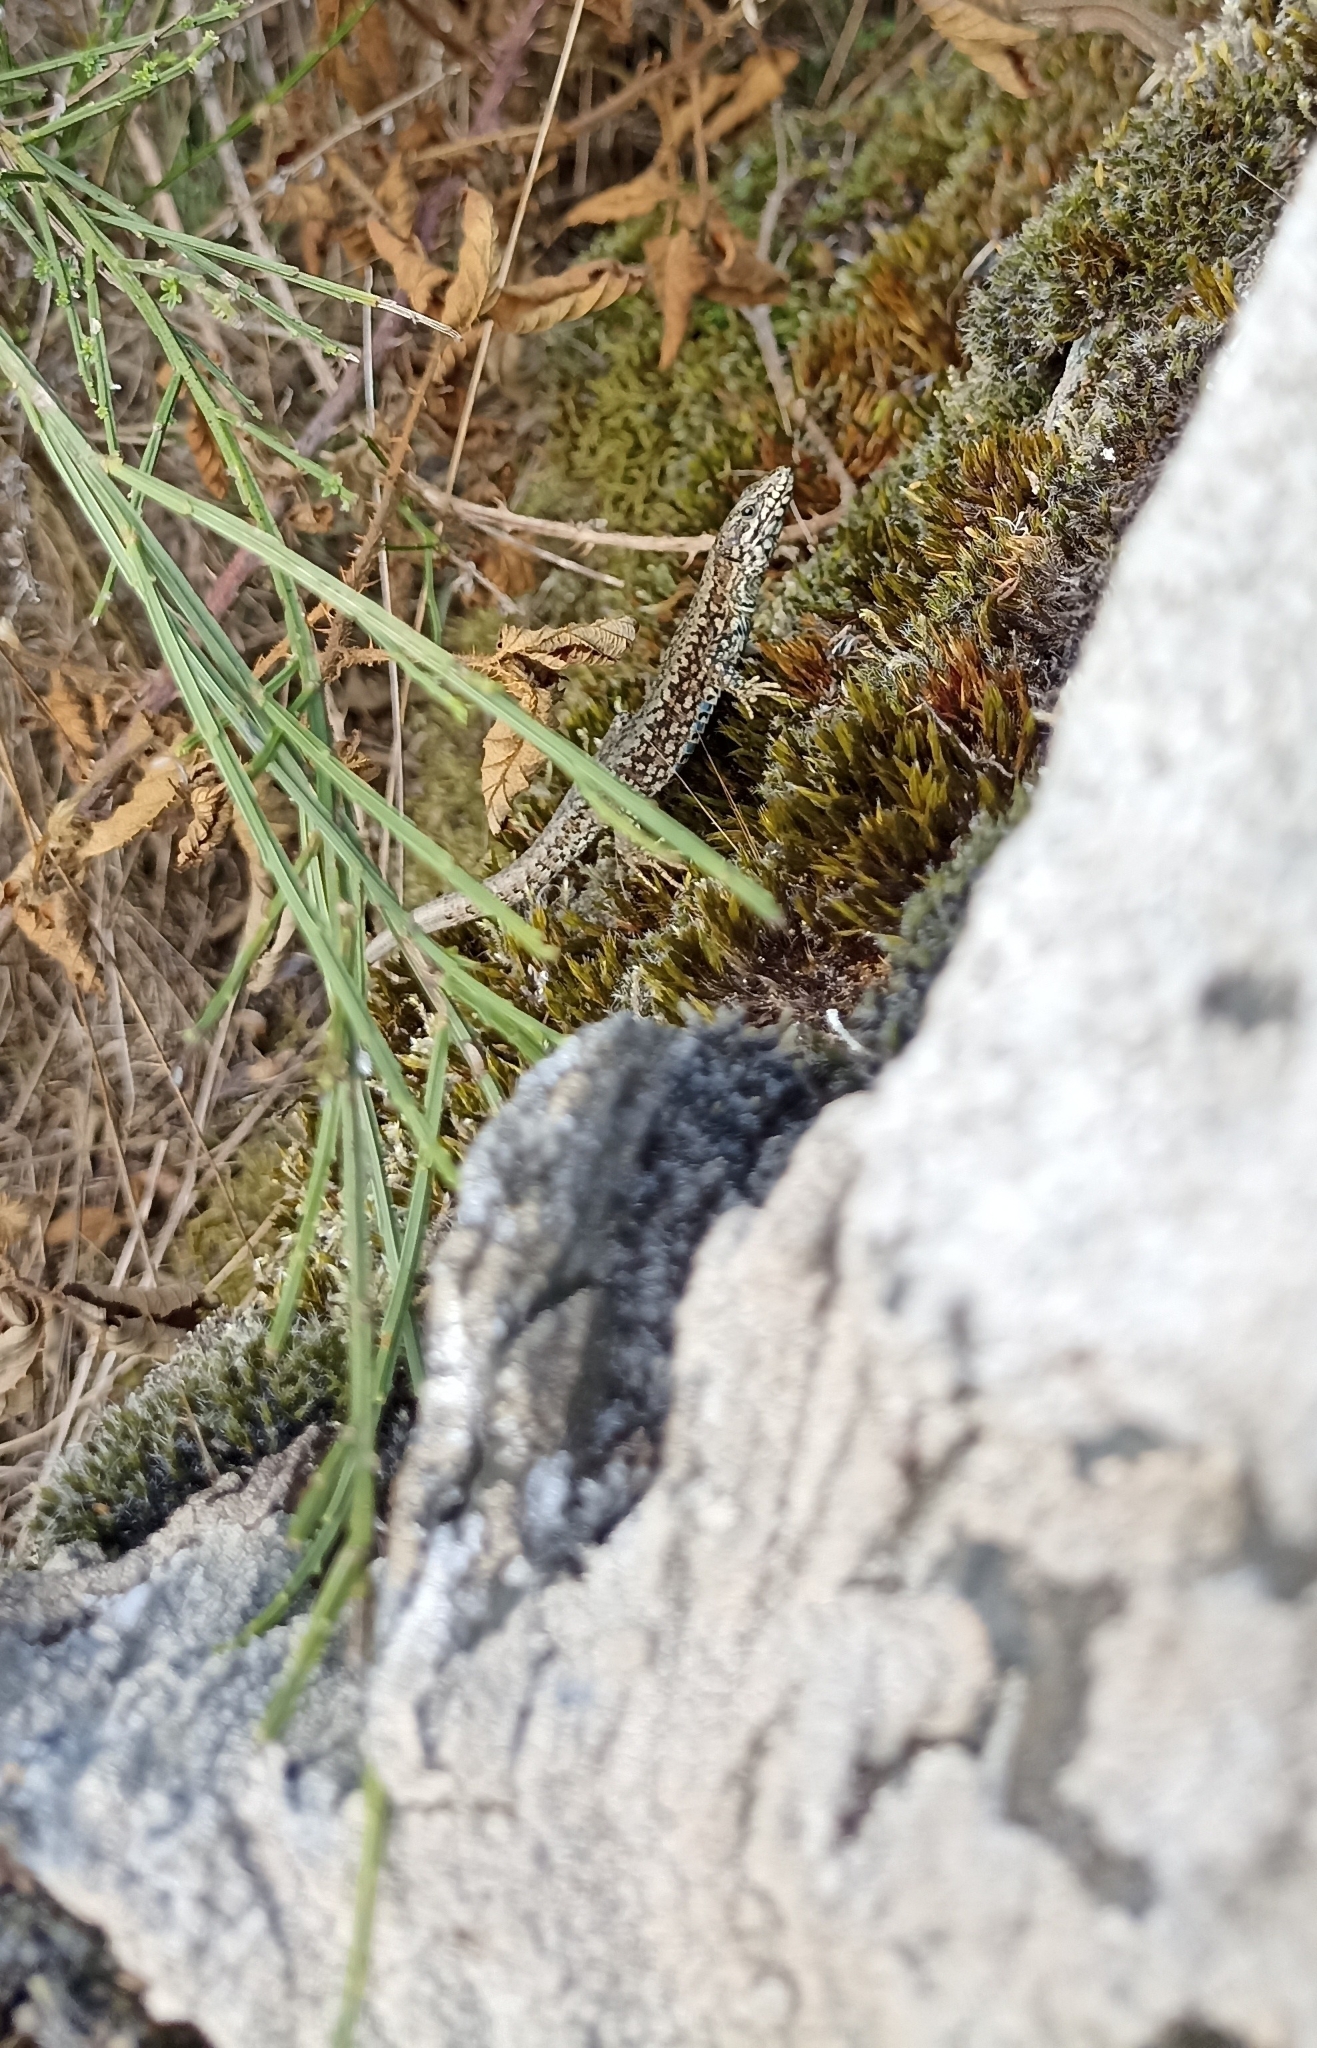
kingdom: Animalia
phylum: Chordata
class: Squamata
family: Lacertidae
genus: Podarcis
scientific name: Podarcis muralis
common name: Common wall lizard
